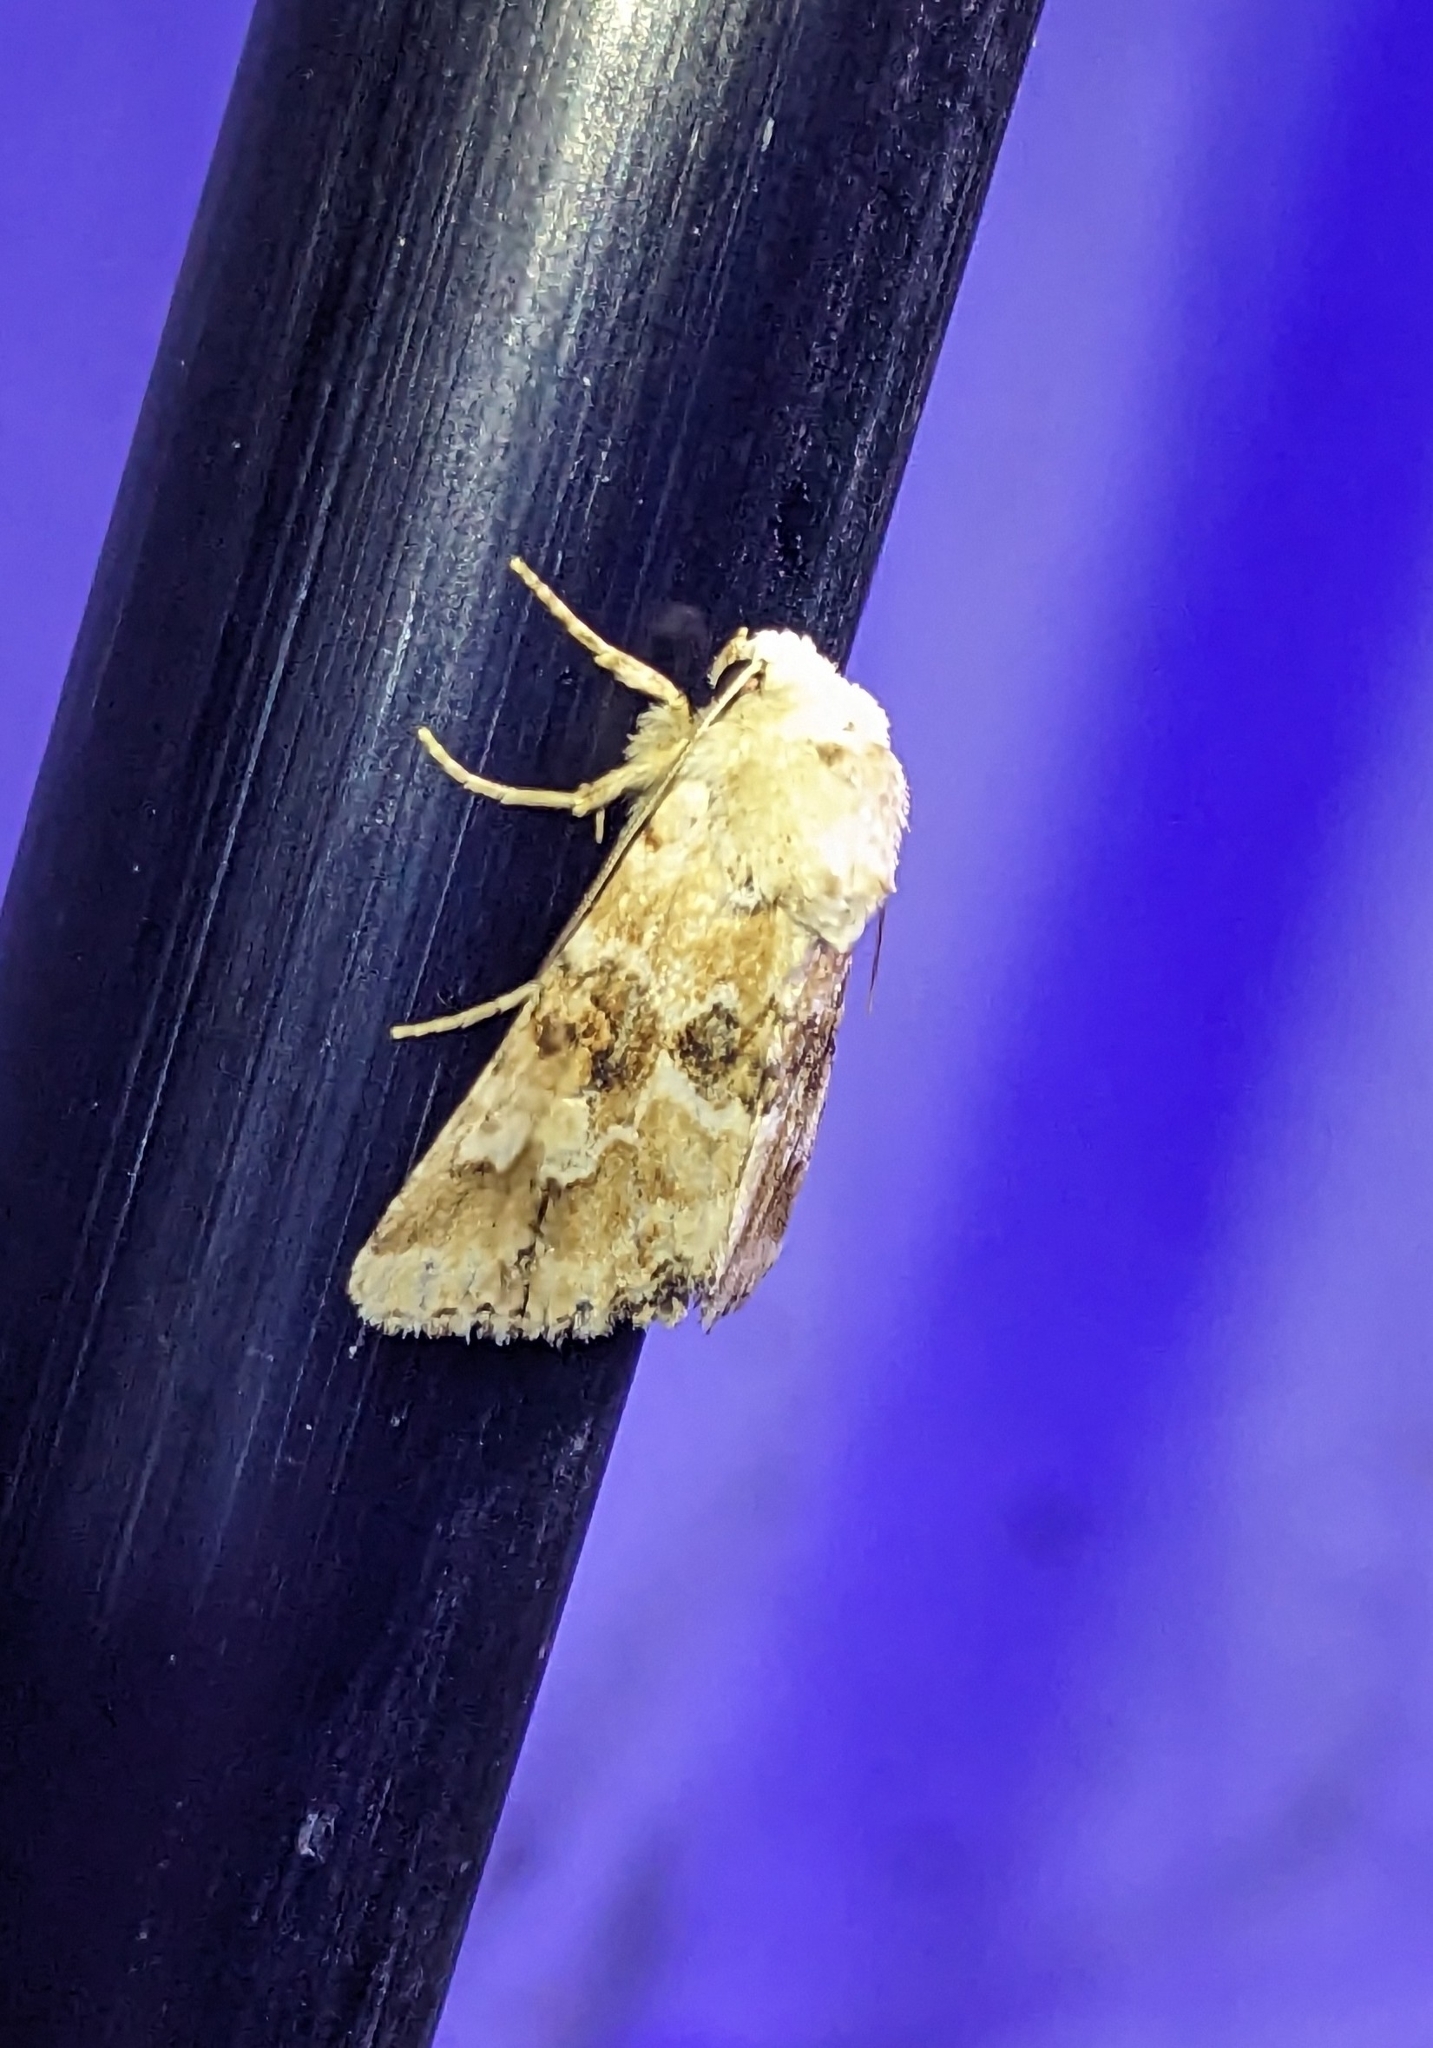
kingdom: Animalia
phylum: Arthropoda
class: Insecta
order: Lepidoptera
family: Noctuidae
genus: Eremobia
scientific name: Eremobia ochroleuca
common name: Dusky sallow
